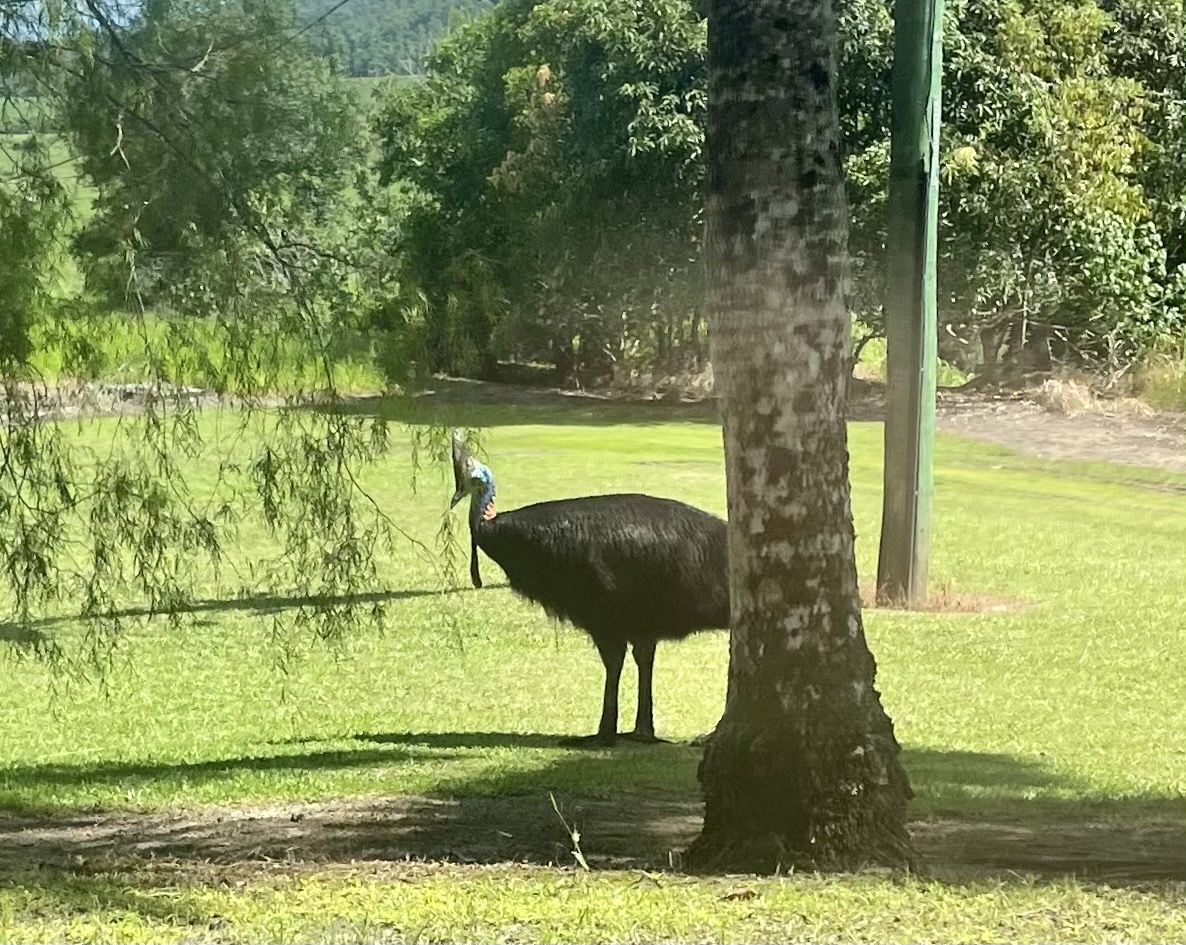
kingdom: Animalia
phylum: Chordata
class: Aves
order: Casuariiformes
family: Casuariidae
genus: Casuarius
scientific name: Casuarius casuarius
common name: Southern cassowary
